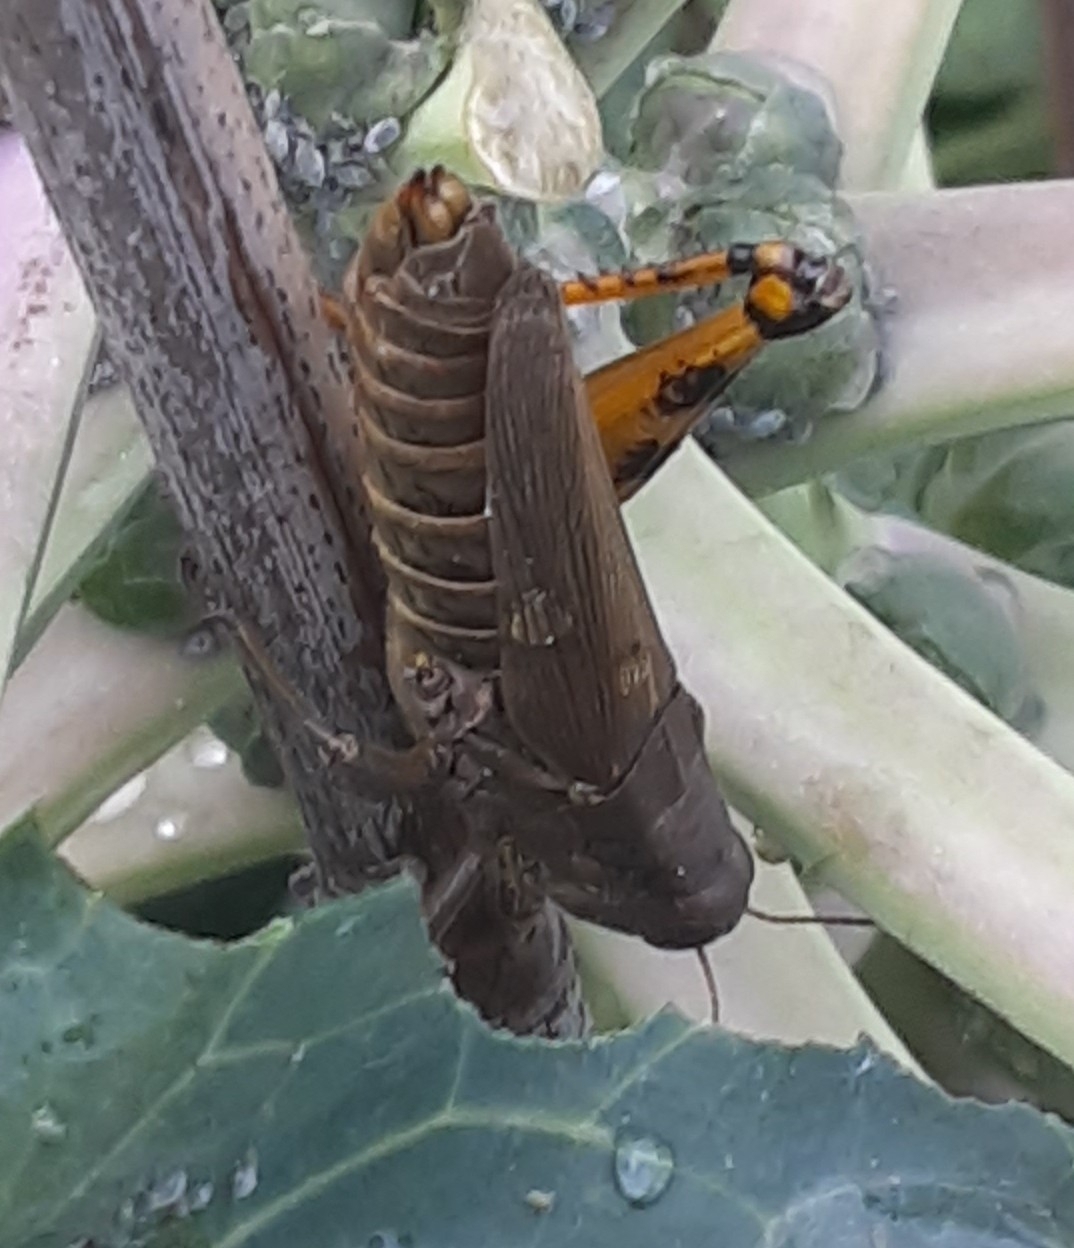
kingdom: Animalia
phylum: Arthropoda
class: Insecta
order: Orthoptera
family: Acrididae
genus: Melanoplus
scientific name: Melanoplus differentialis
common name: Differential grasshopper
